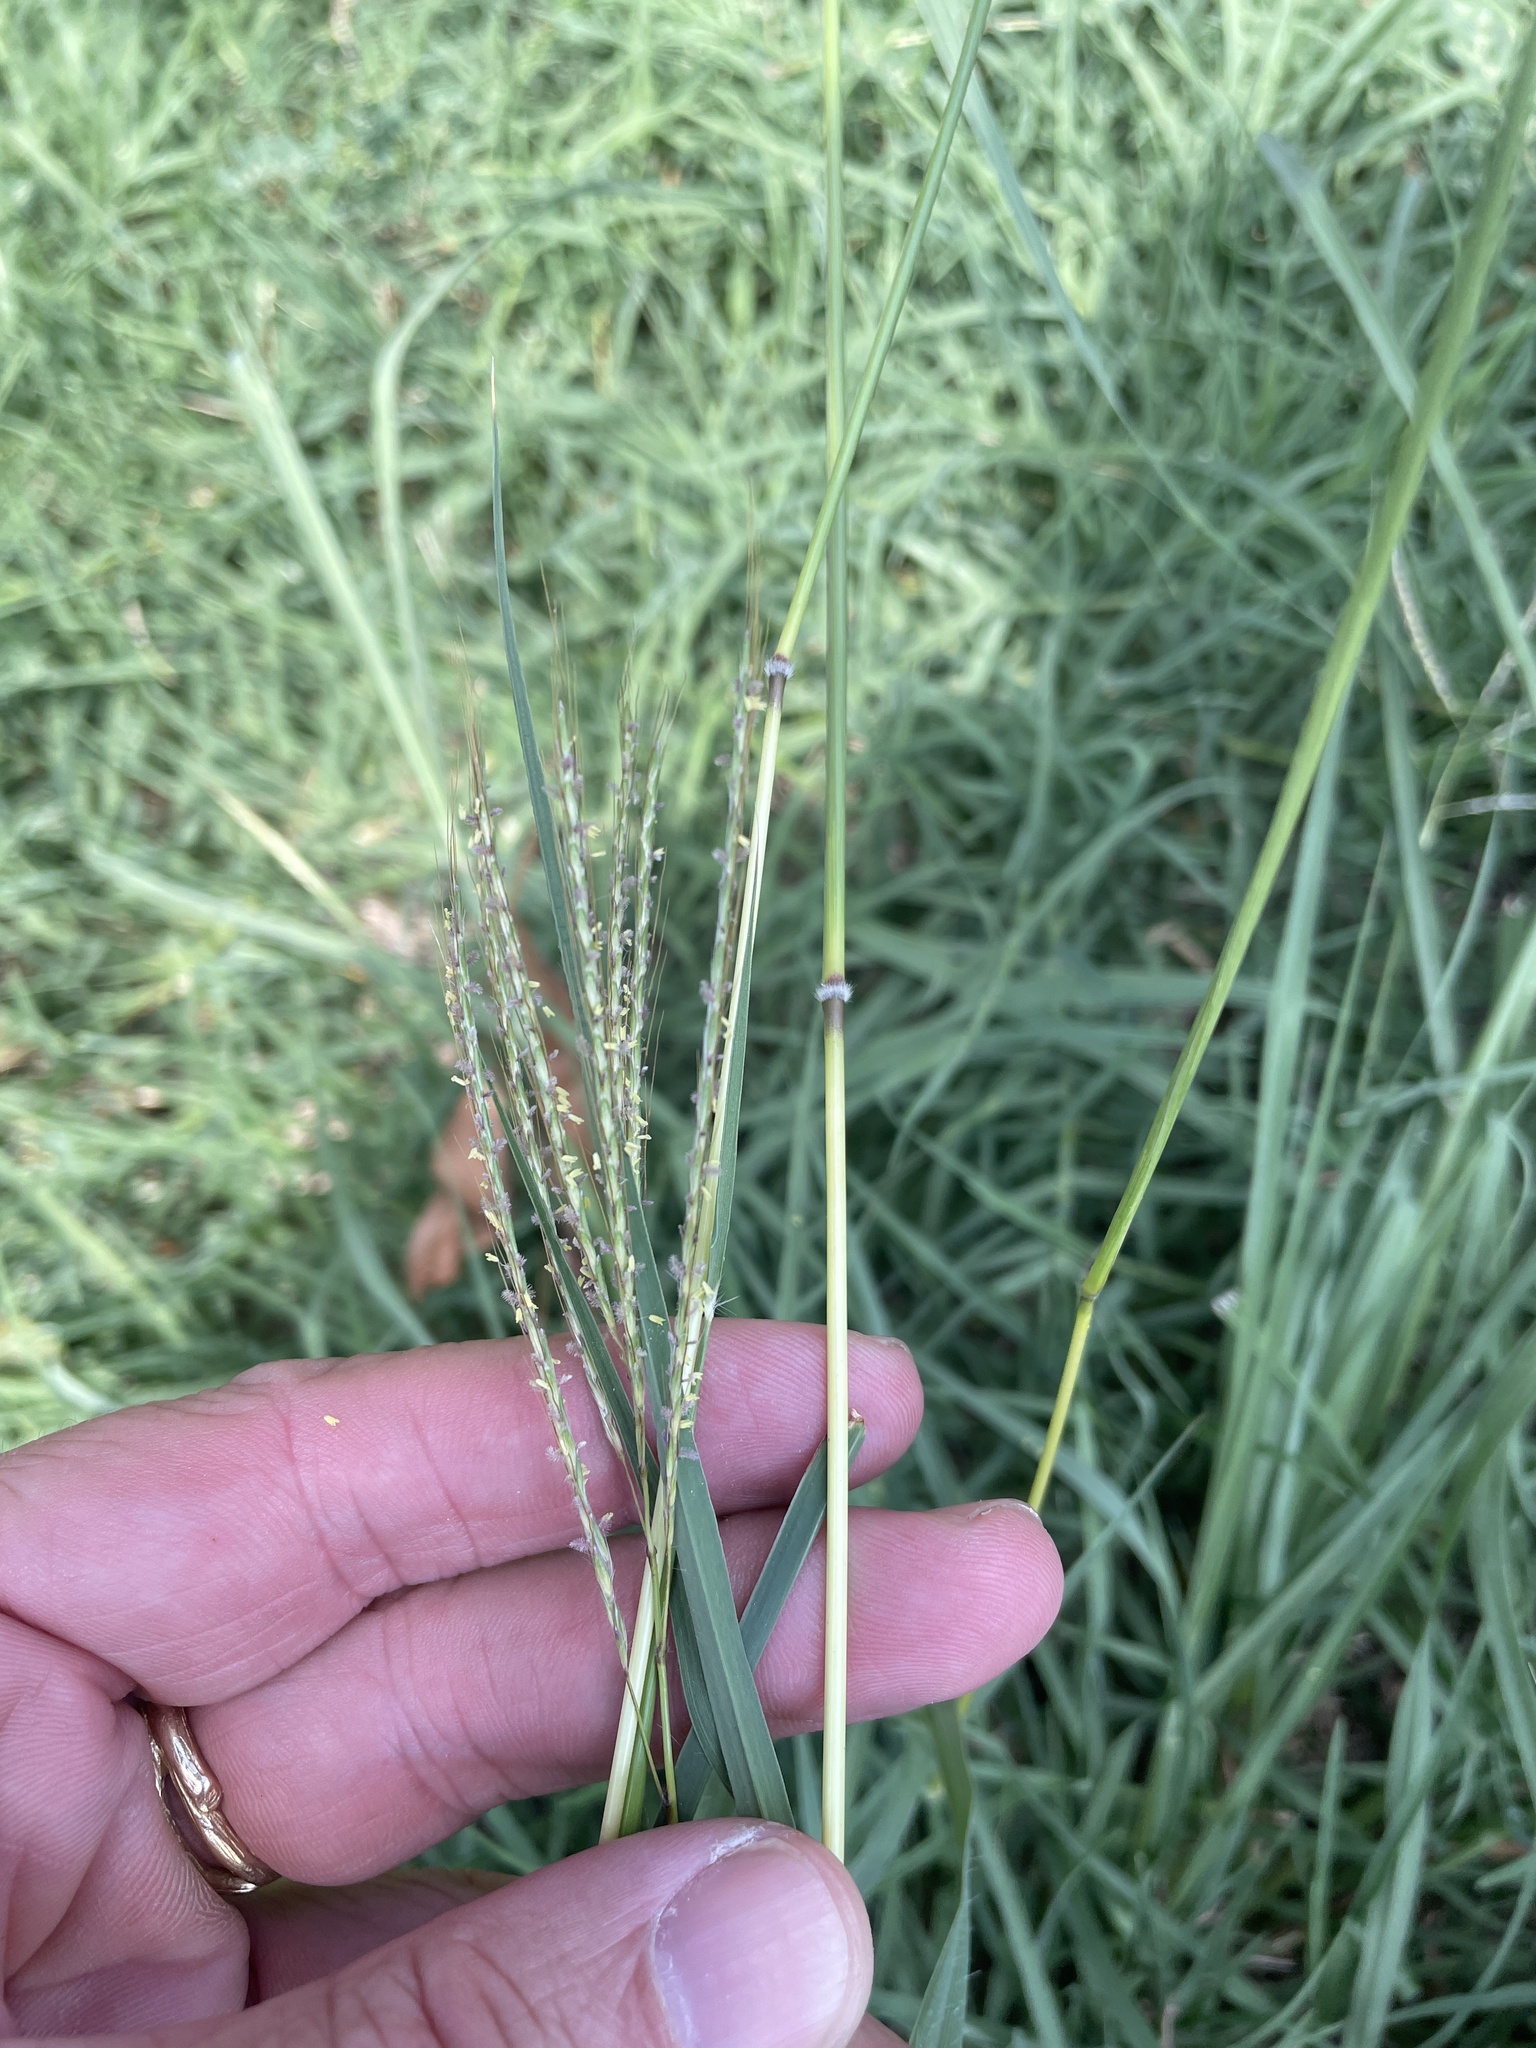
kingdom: Plantae
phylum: Tracheophyta
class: Liliopsida
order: Poales
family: Poaceae
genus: Bothriochloa
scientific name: Bothriochloa ischaemum
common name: Yellow bluestem
